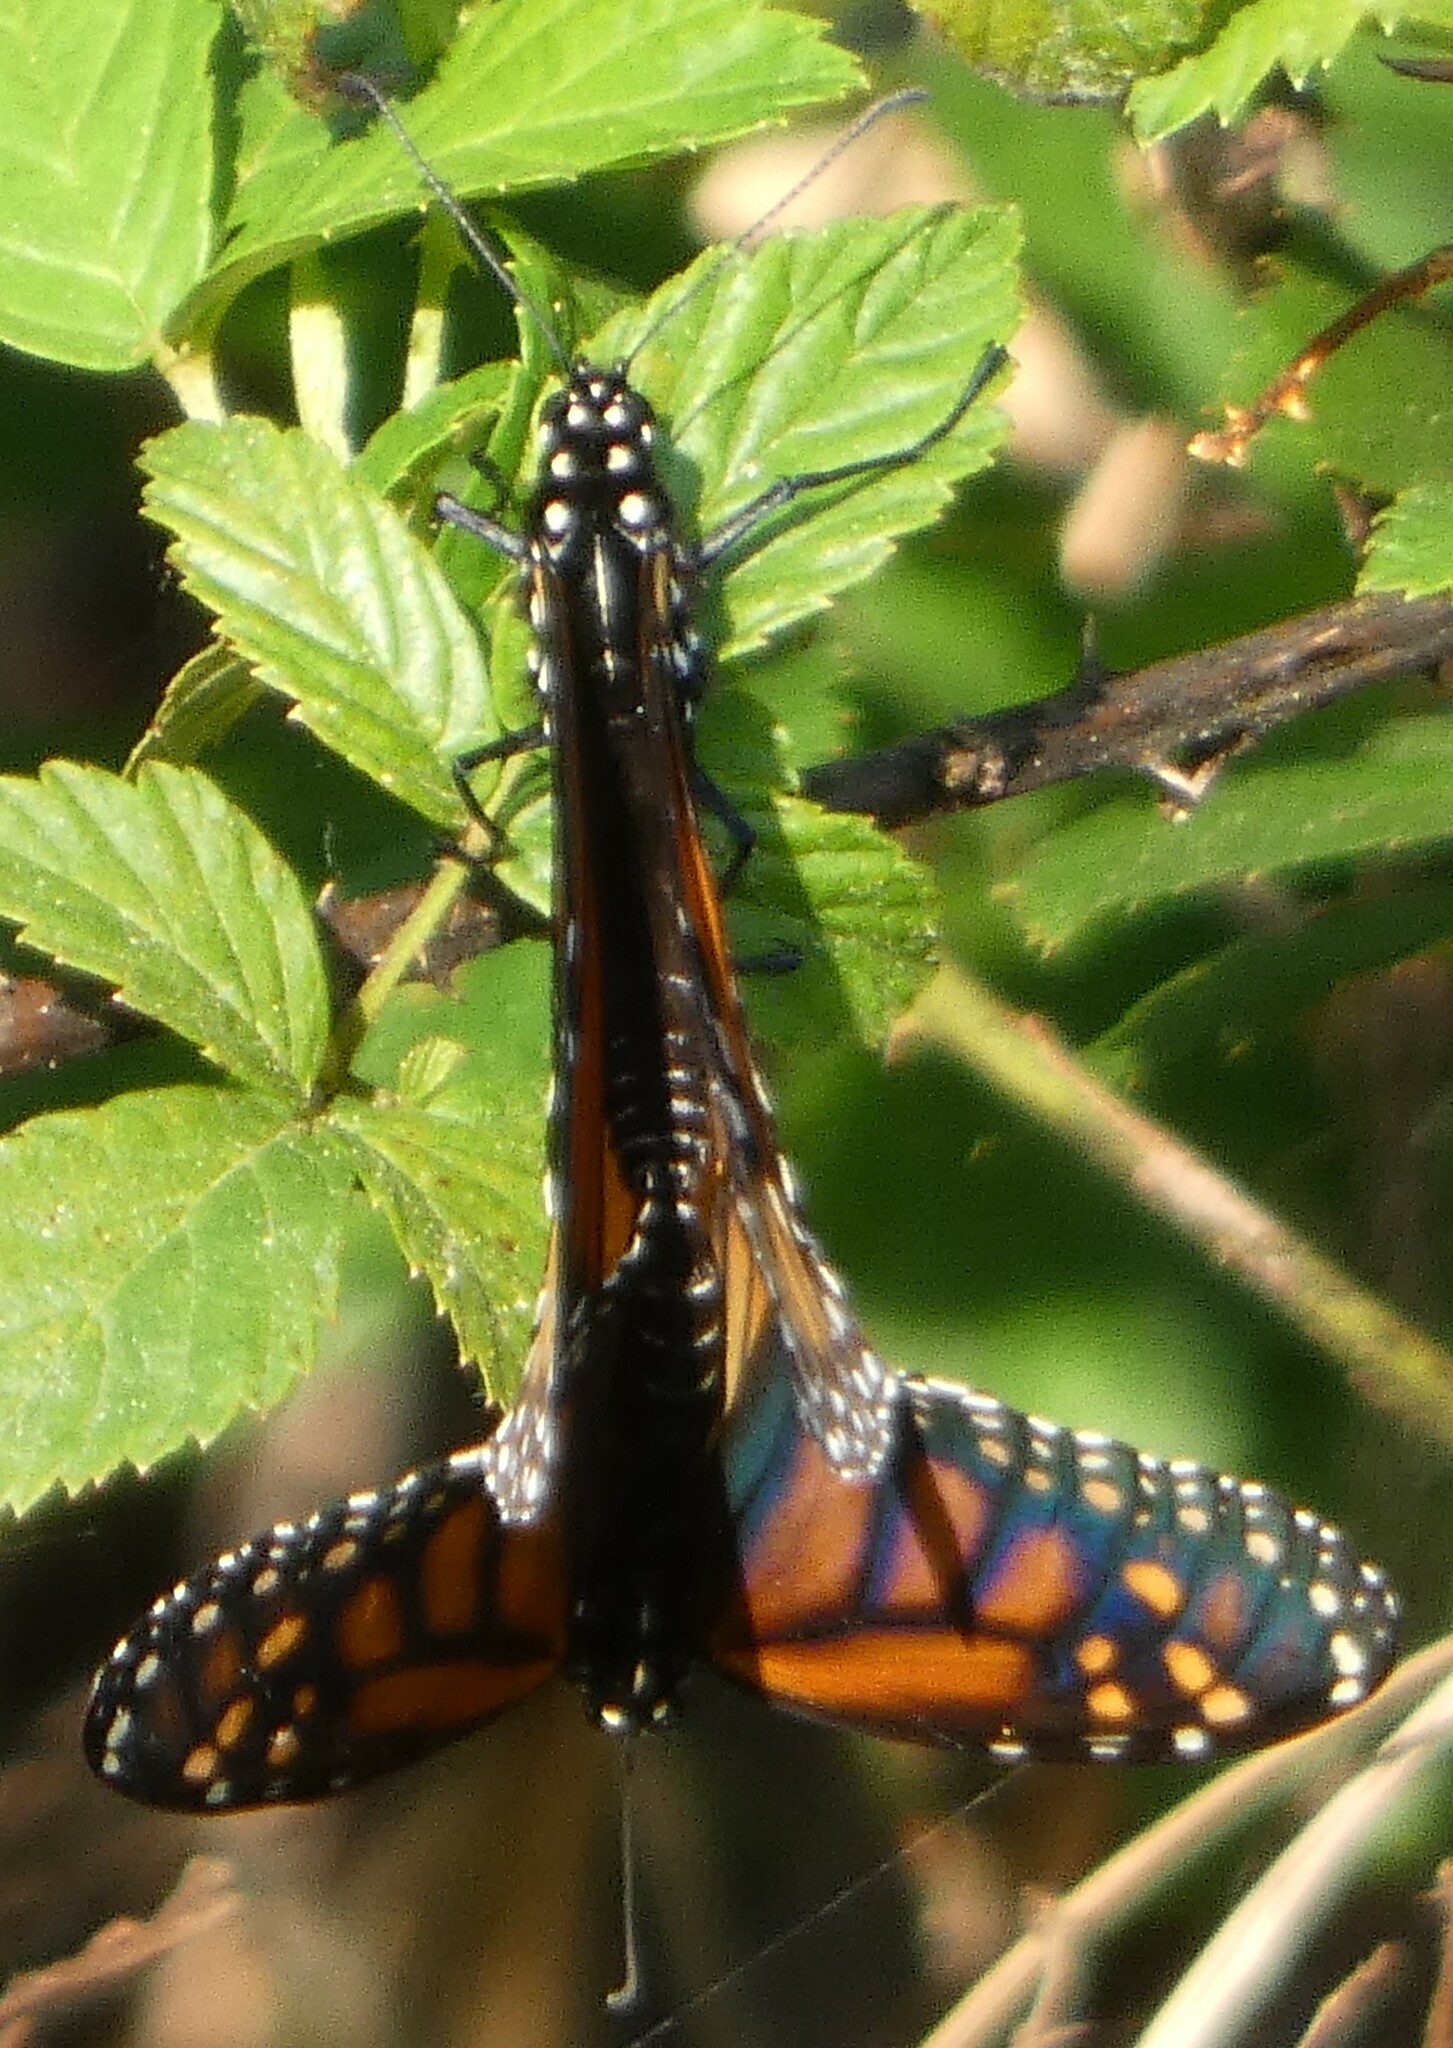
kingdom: Animalia
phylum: Arthropoda
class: Insecta
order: Lepidoptera
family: Nymphalidae
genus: Danaus
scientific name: Danaus plexippus
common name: Monarch
